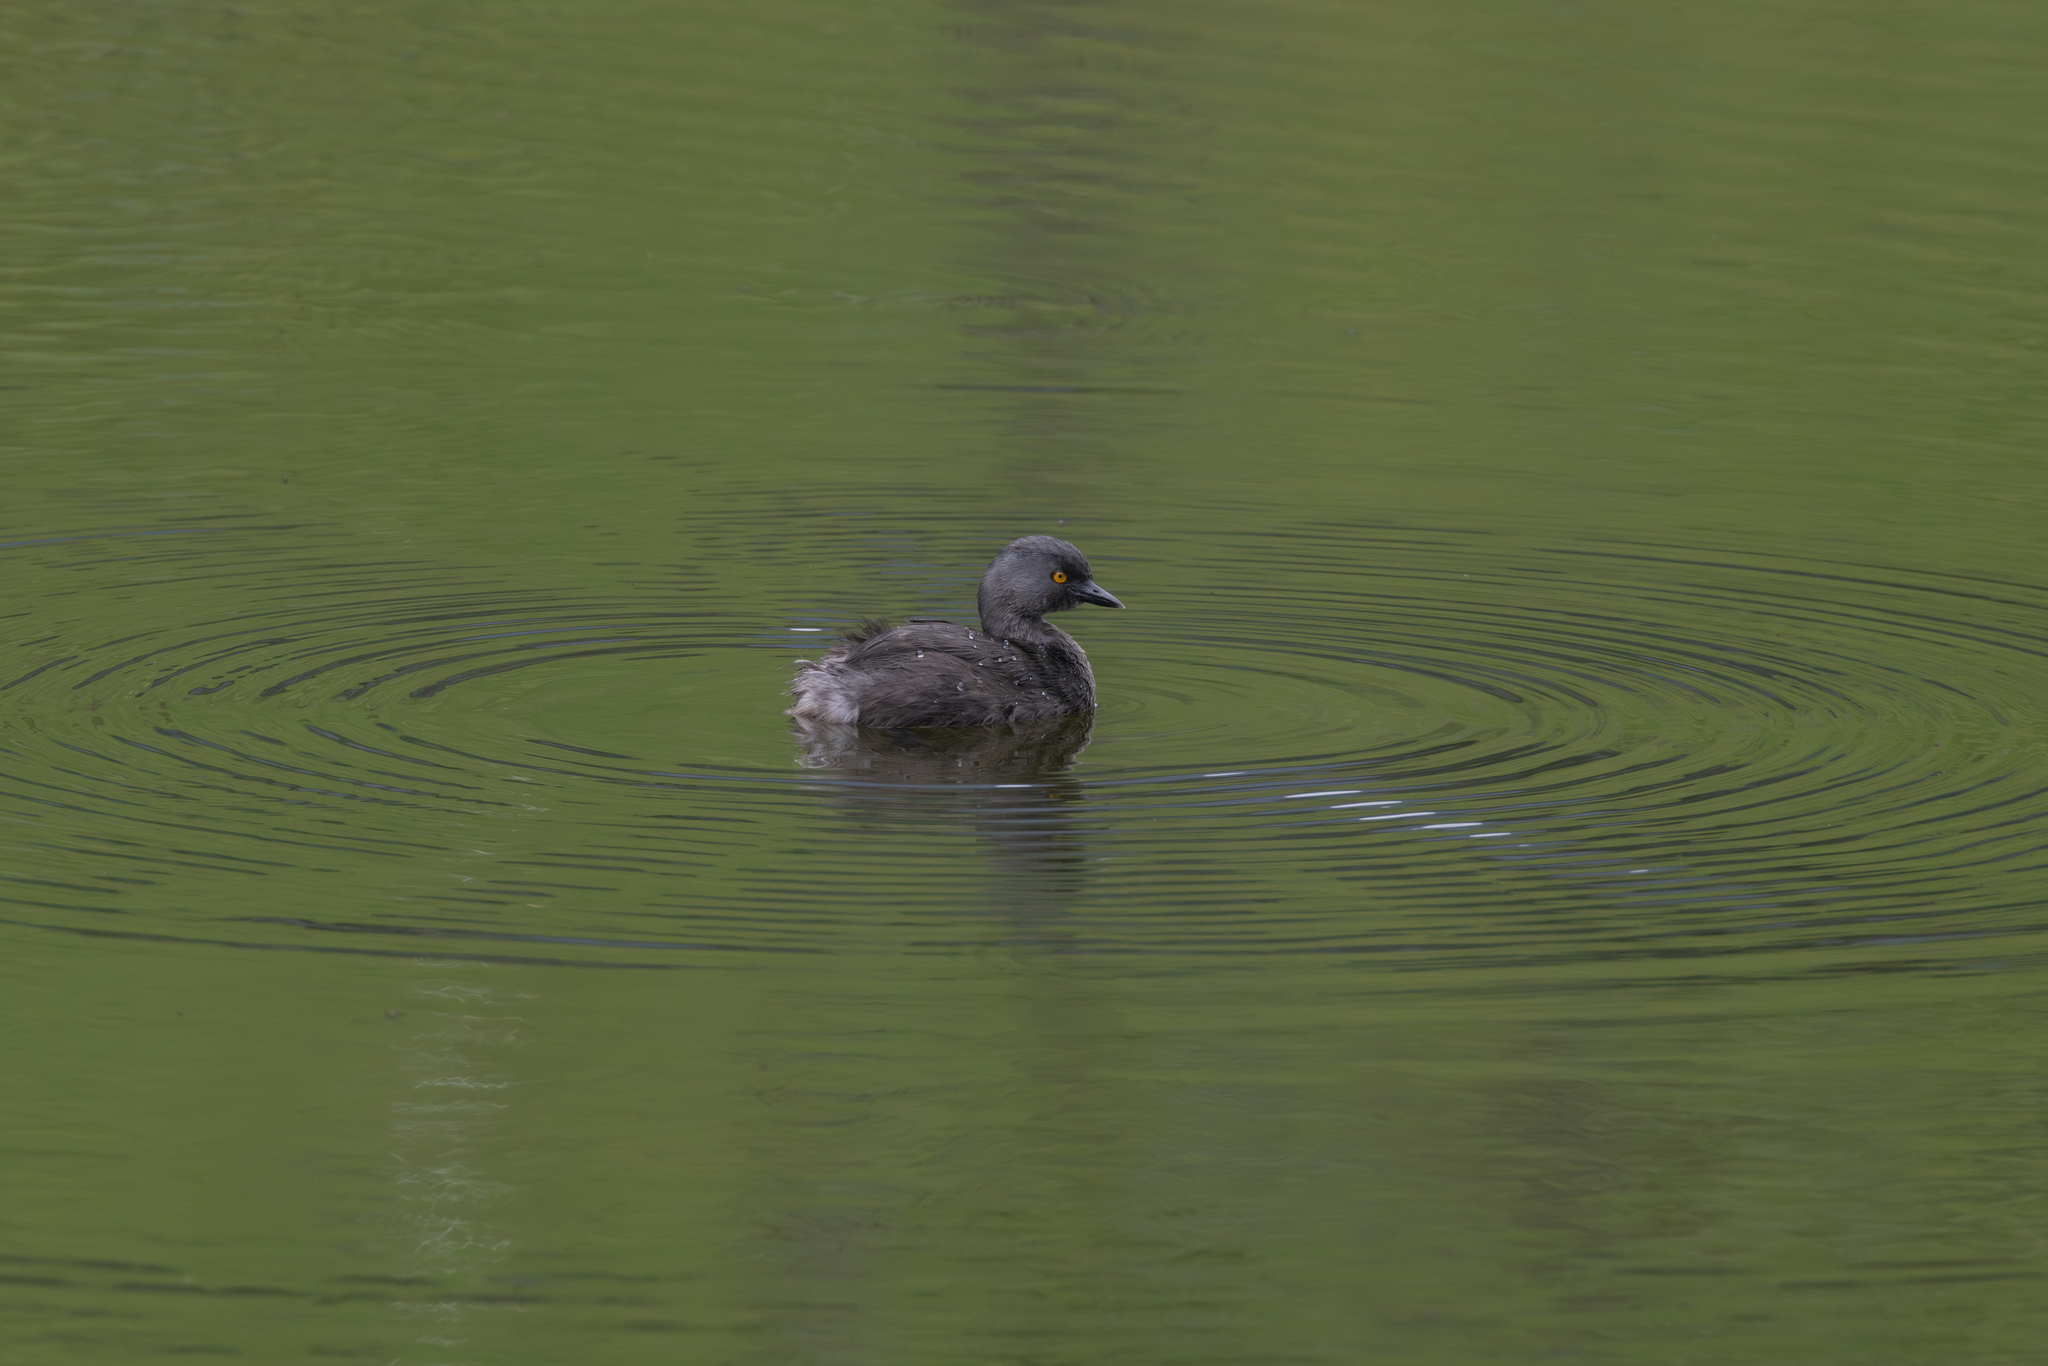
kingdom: Animalia
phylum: Chordata
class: Aves
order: Podicipediformes
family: Podicipedidae
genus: Tachybaptus
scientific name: Tachybaptus dominicus
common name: Least grebe
